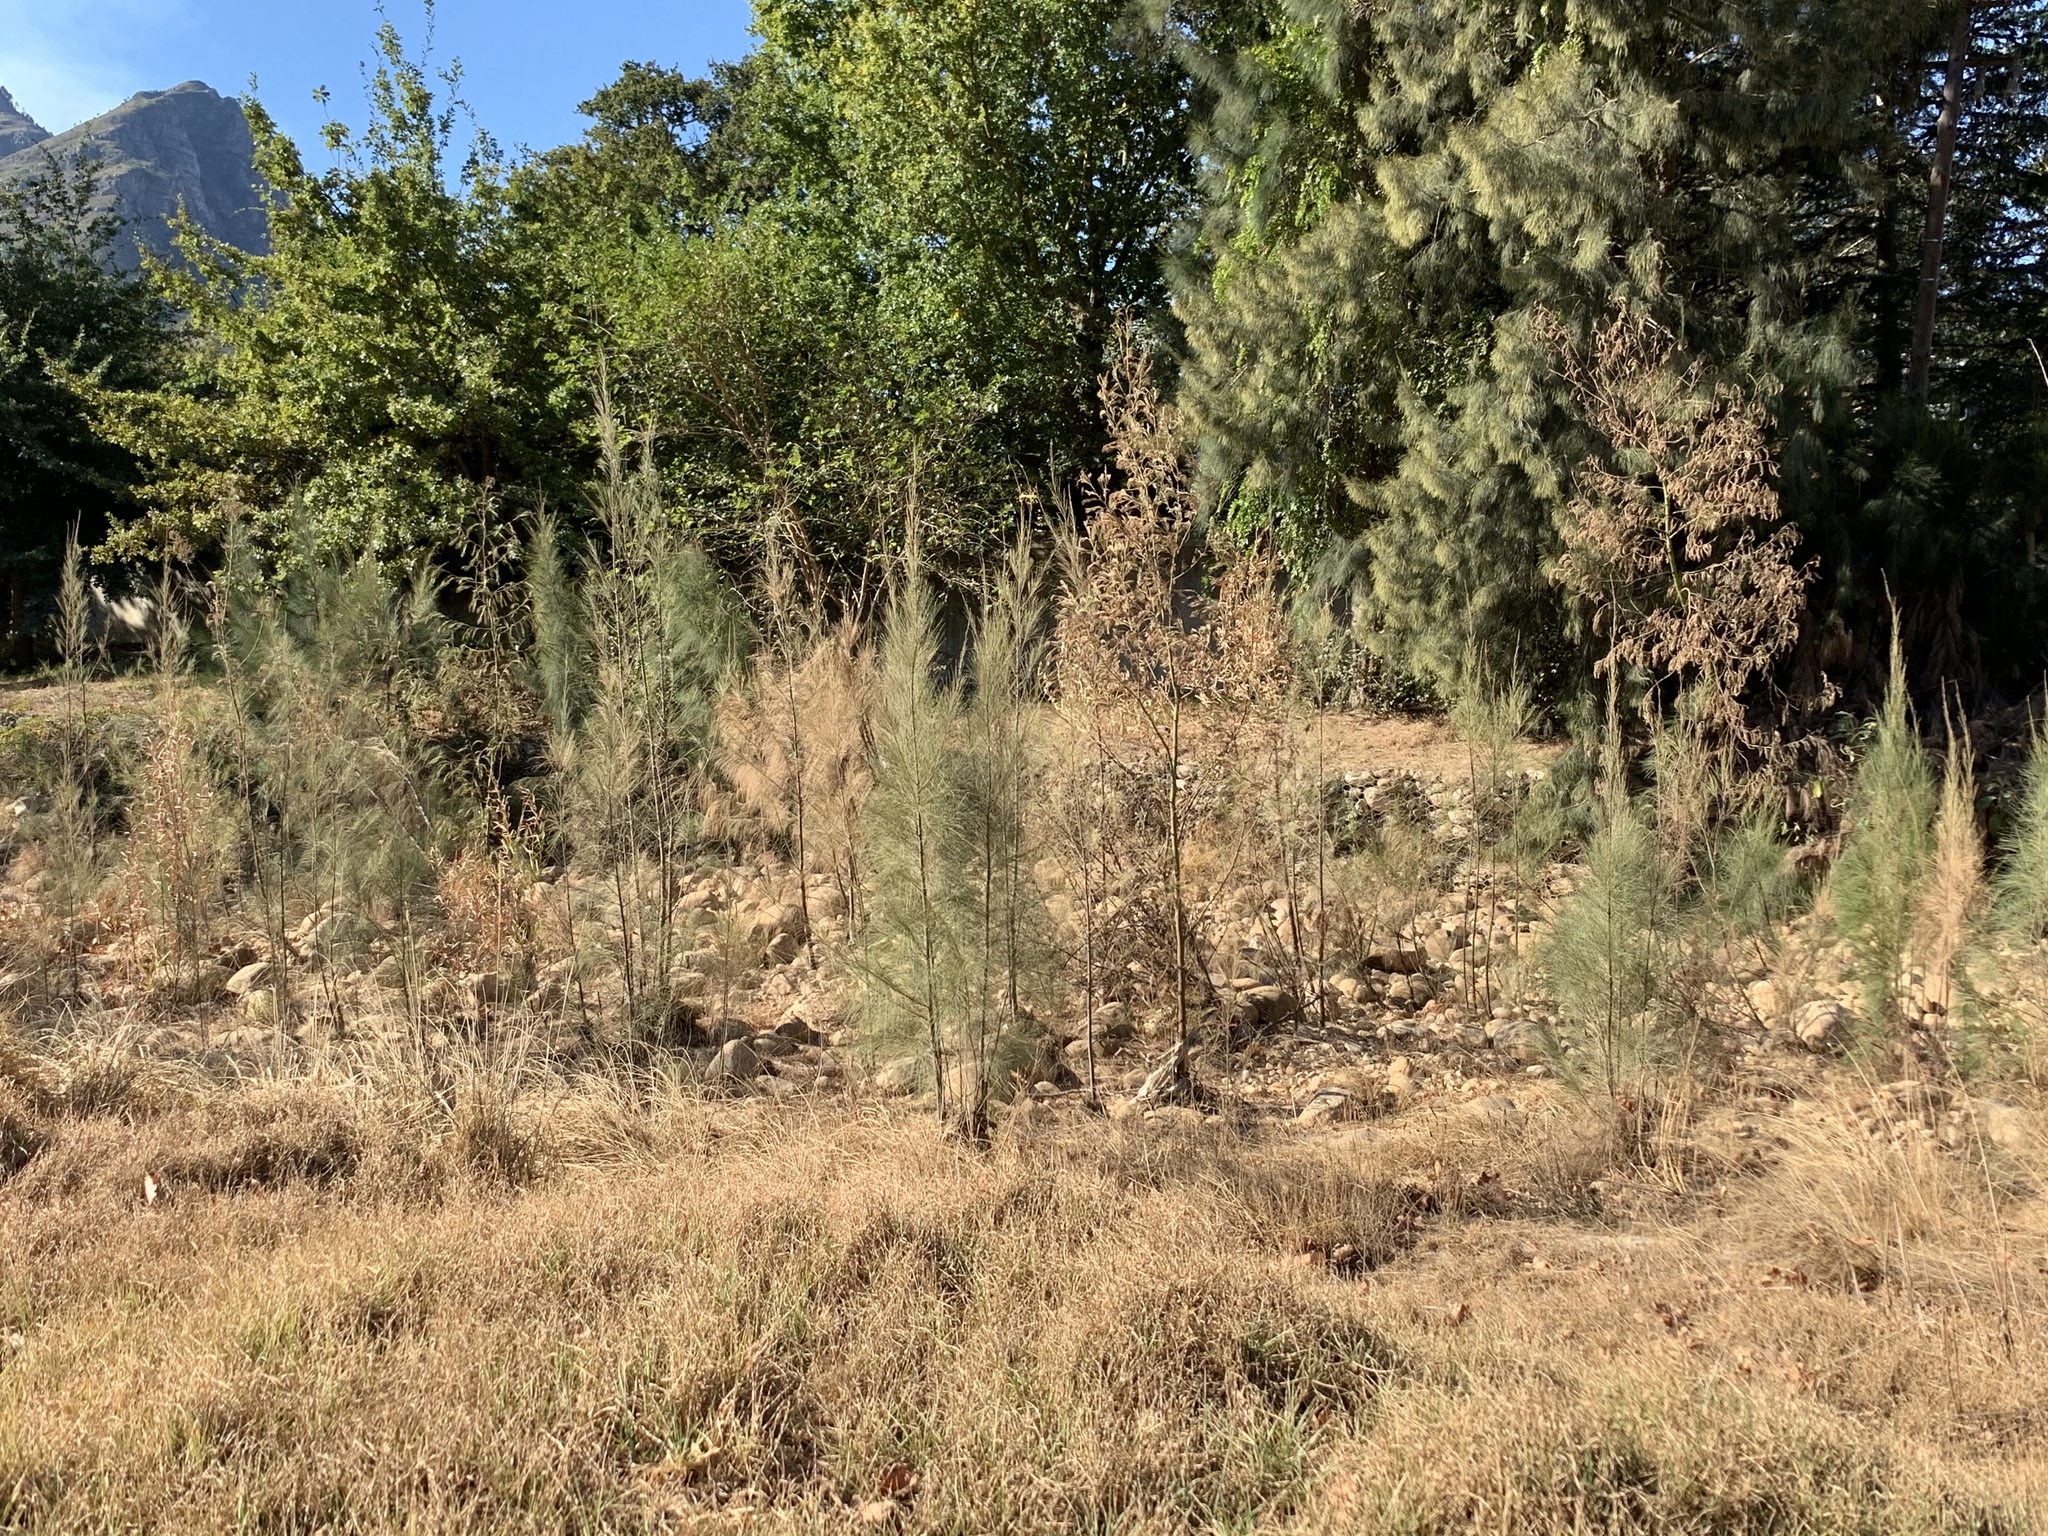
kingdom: Plantae
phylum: Tracheophyta
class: Magnoliopsida
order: Fagales
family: Casuarinaceae
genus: Casuarina
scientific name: Casuarina cunninghamiana
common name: River sheoak
